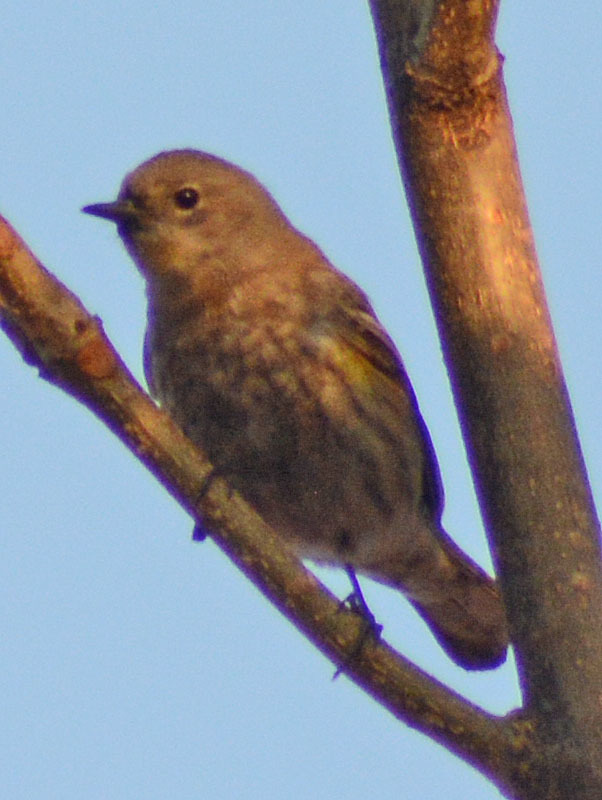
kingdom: Animalia
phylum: Chordata
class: Aves
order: Passeriformes
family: Parulidae
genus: Setophaga
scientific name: Setophaga coronata
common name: Myrtle warbler
